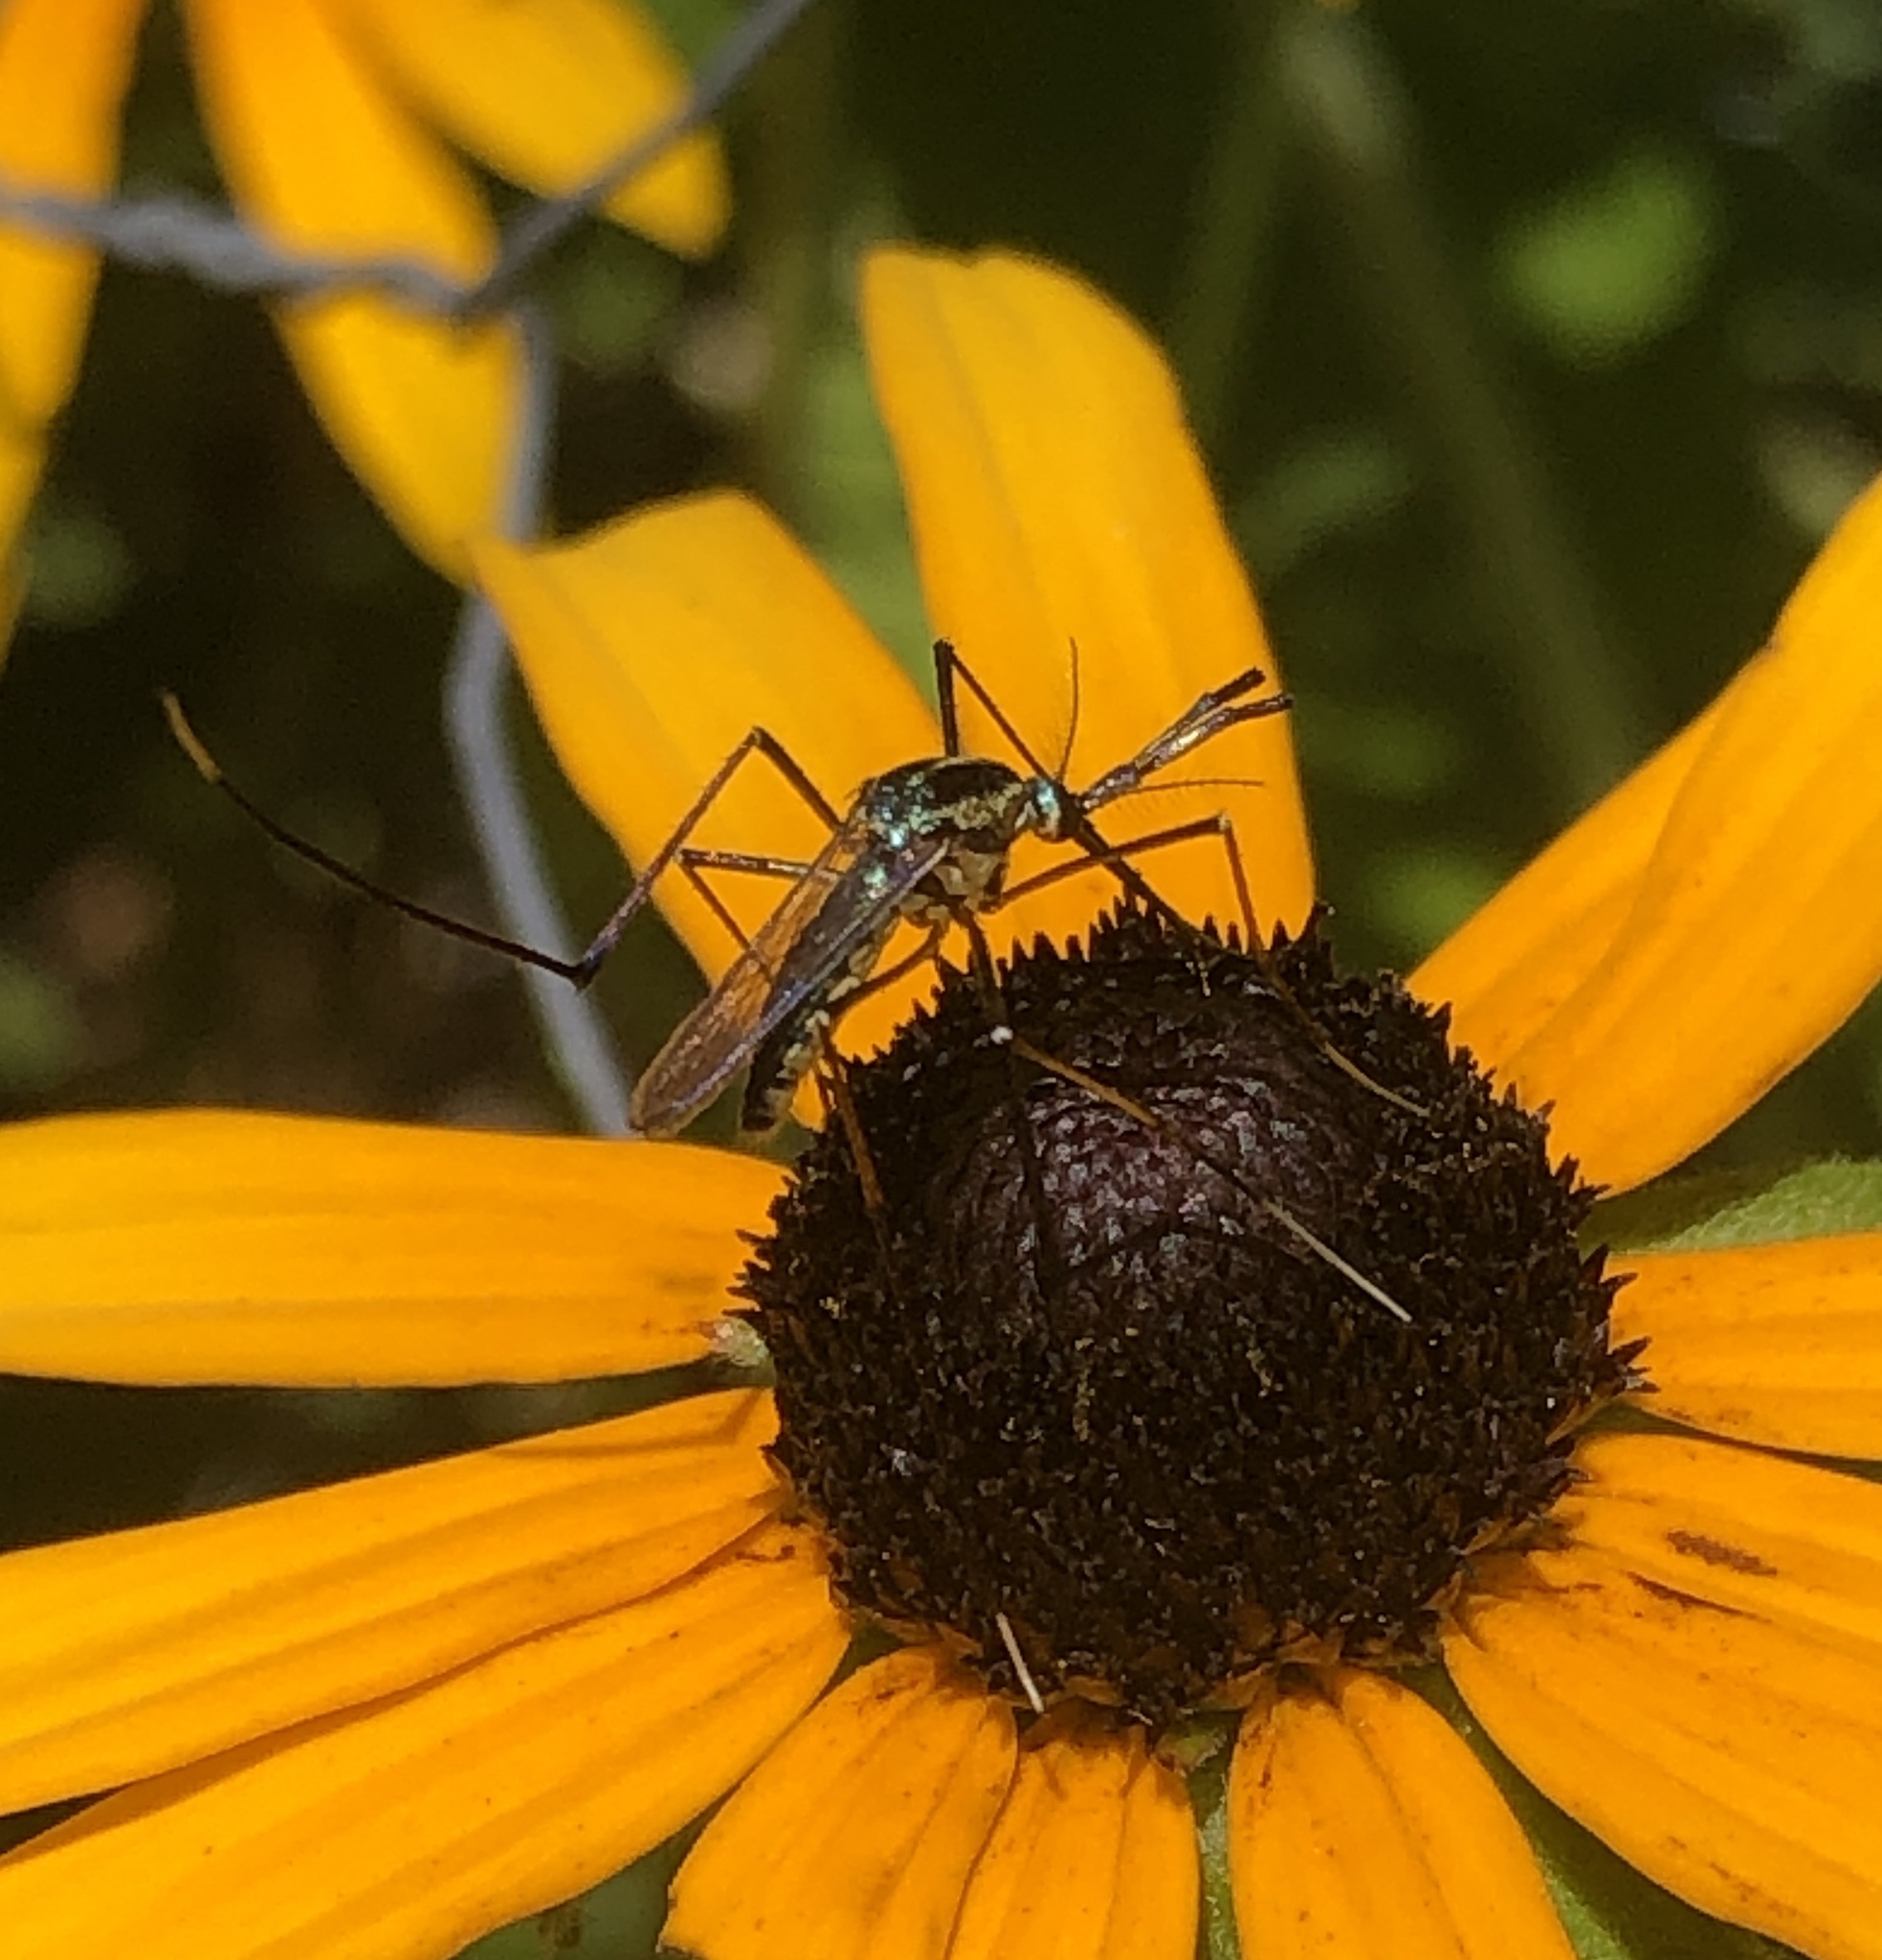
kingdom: Animalia
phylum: Arthropoda
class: Insecta
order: Diptera
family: Culicidae
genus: Toxorhynchites
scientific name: Toxorhynchites rutilus
